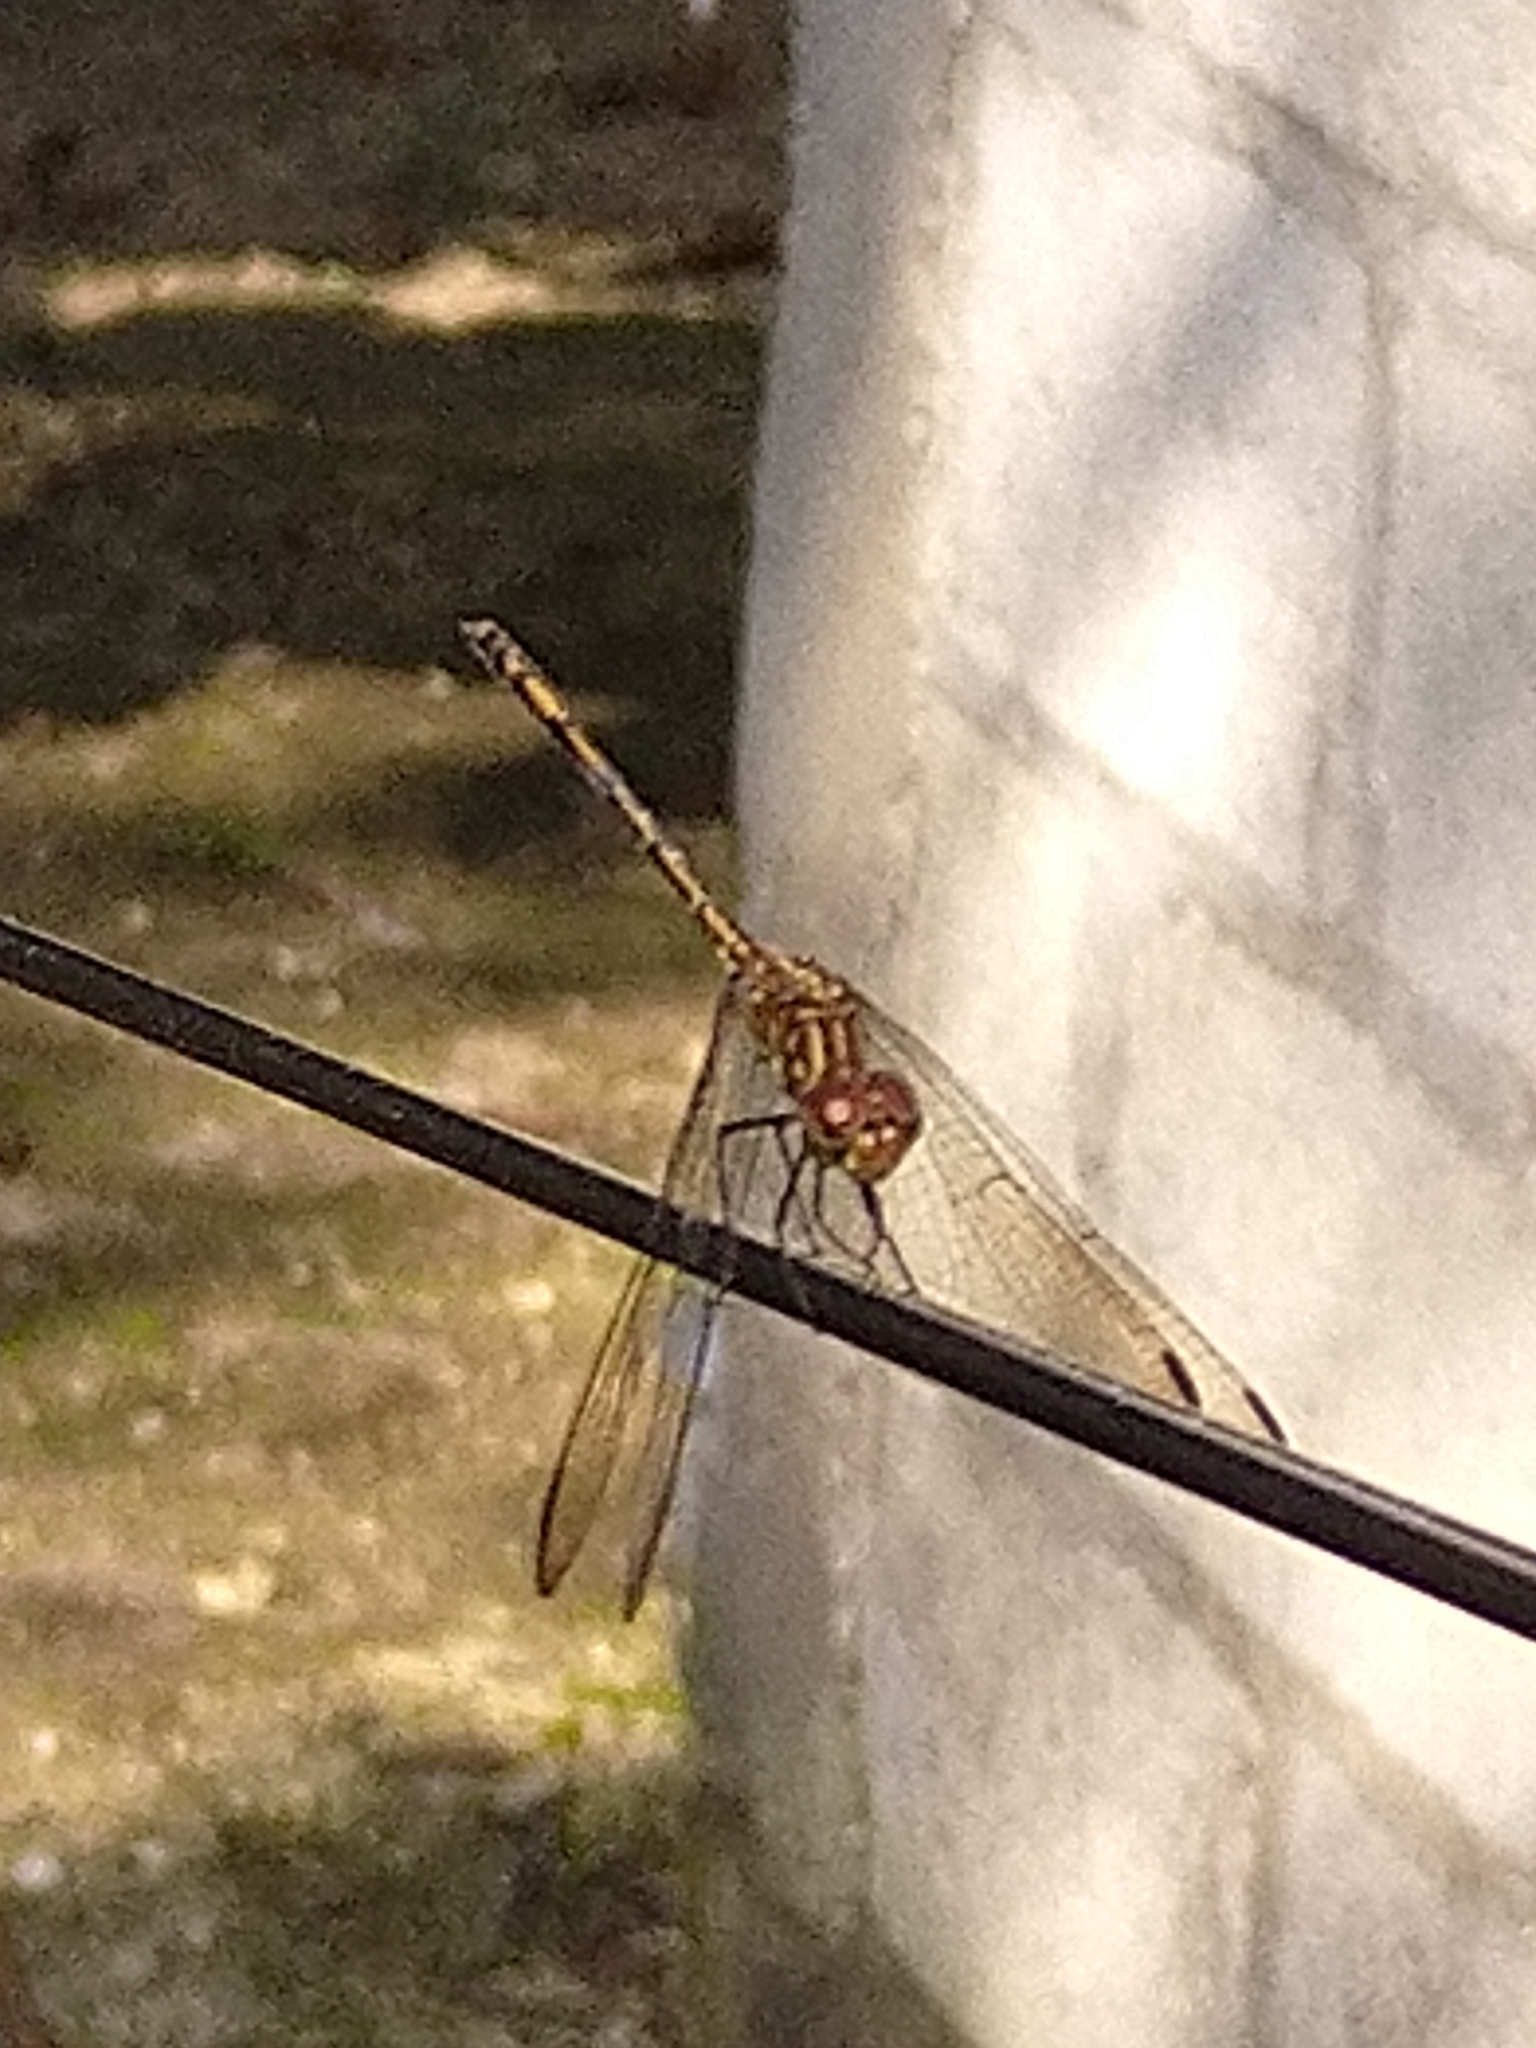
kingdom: Animalia
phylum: Arthropoda
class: Insecta
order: Odonata
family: Libellulidae
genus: Dythemis
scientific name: Dythemis sterilis
